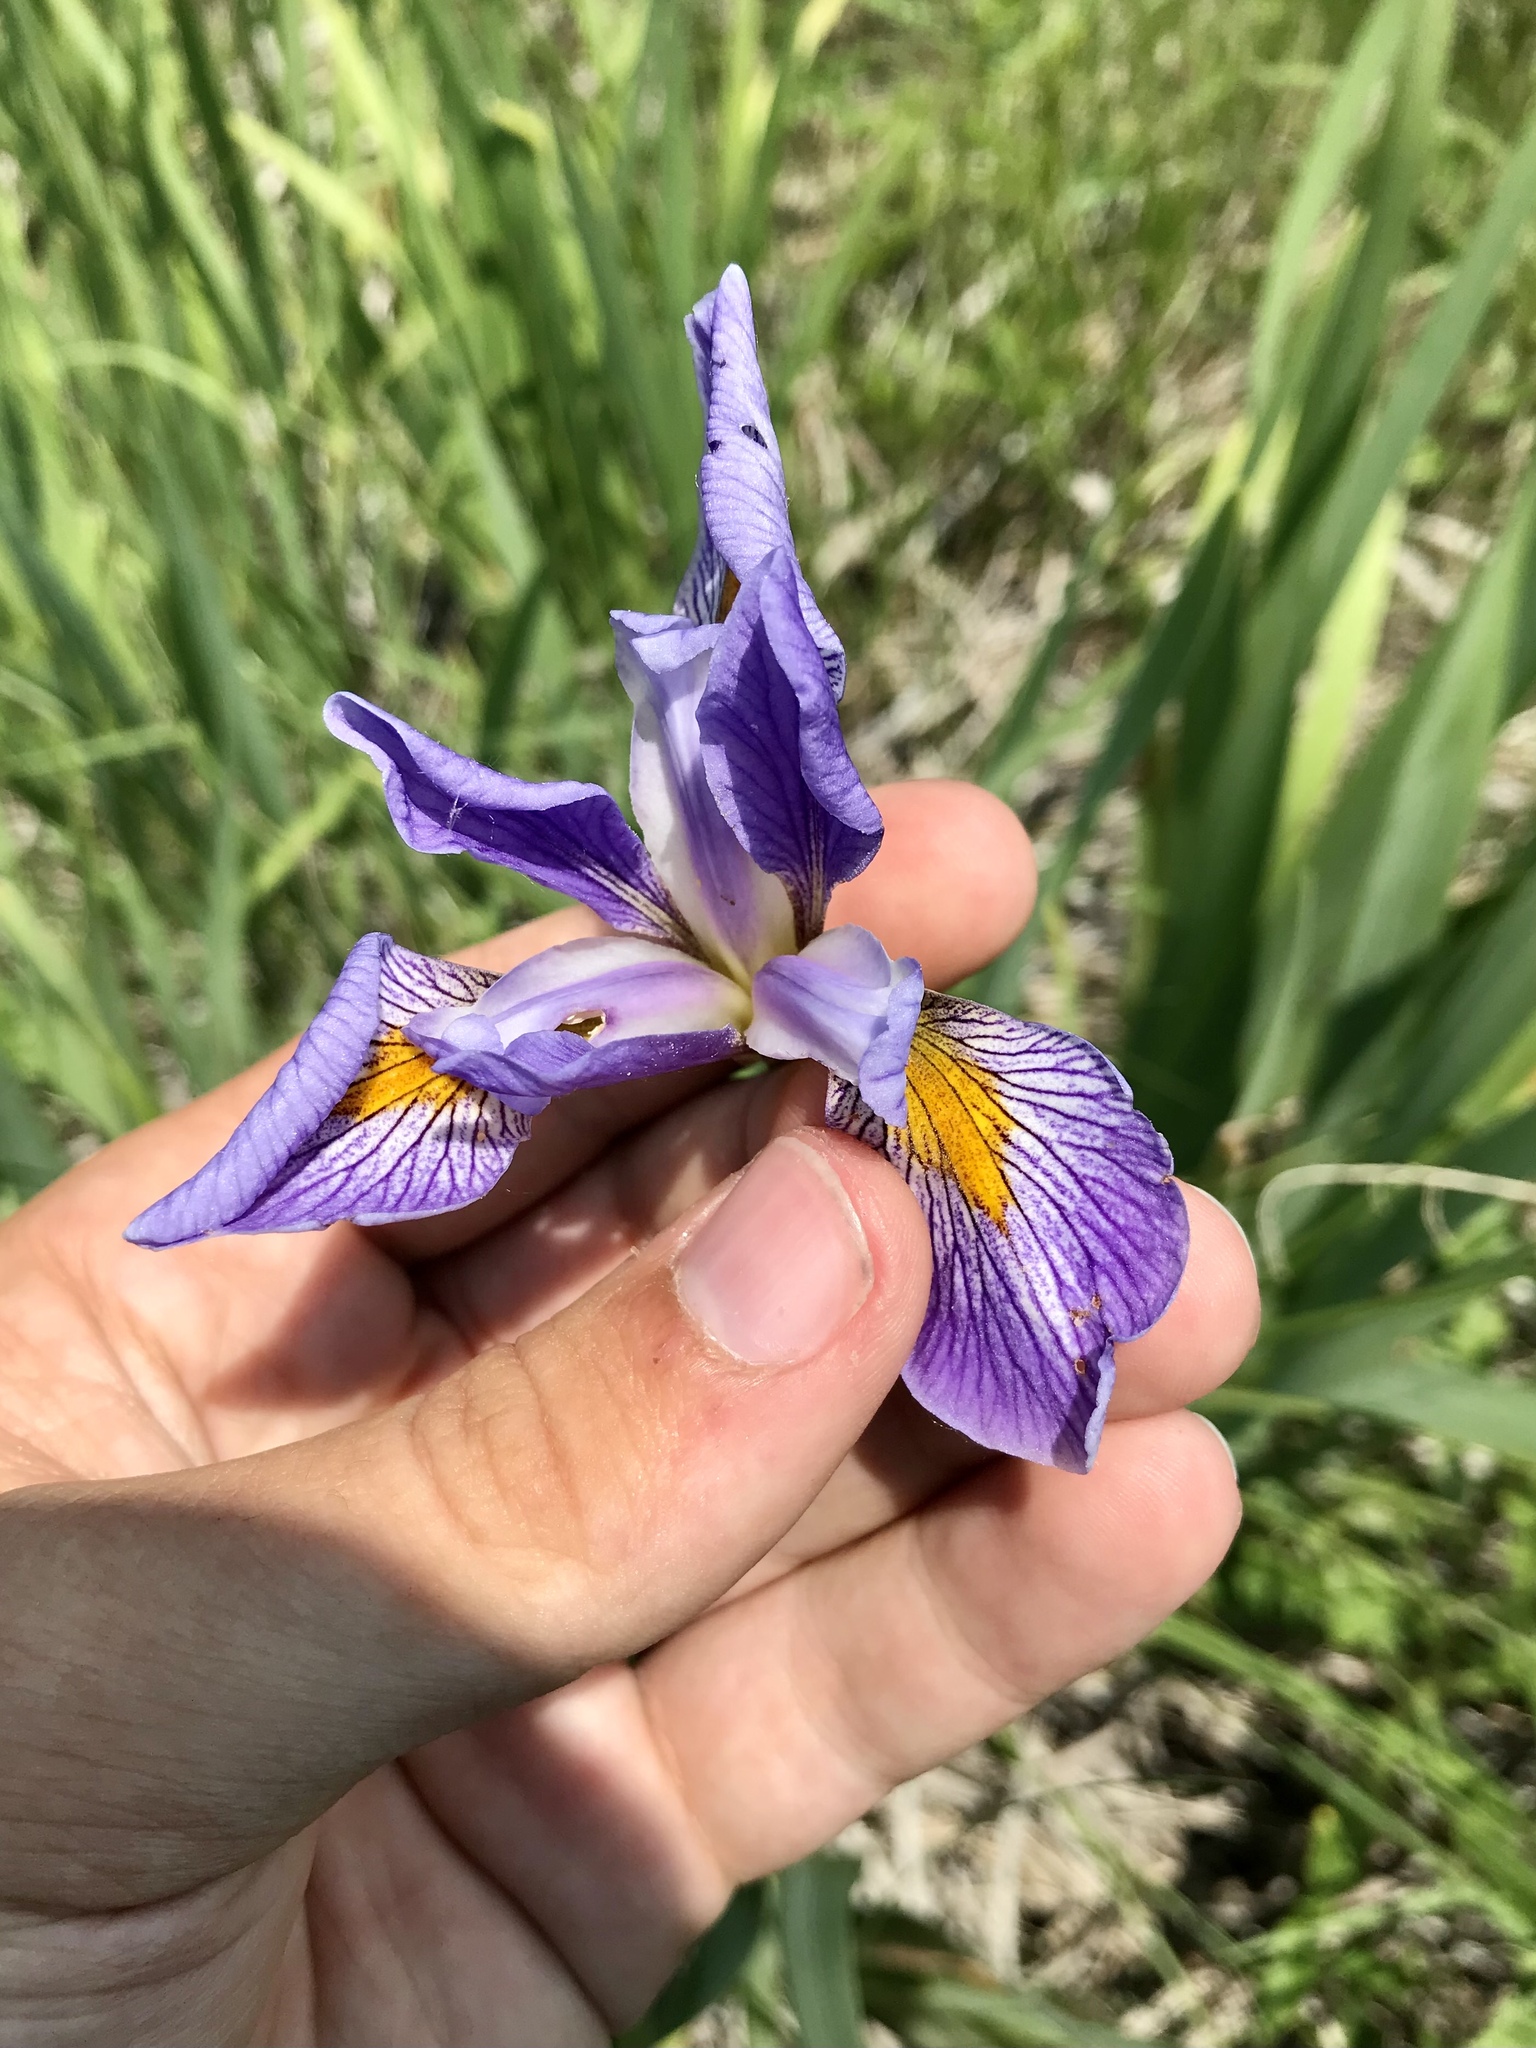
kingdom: Plantae
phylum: Tracheophyta
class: Liliopsida
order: Asparagales
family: Iridaceae
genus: Iris
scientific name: Iris virginica
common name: Southern blue flag
